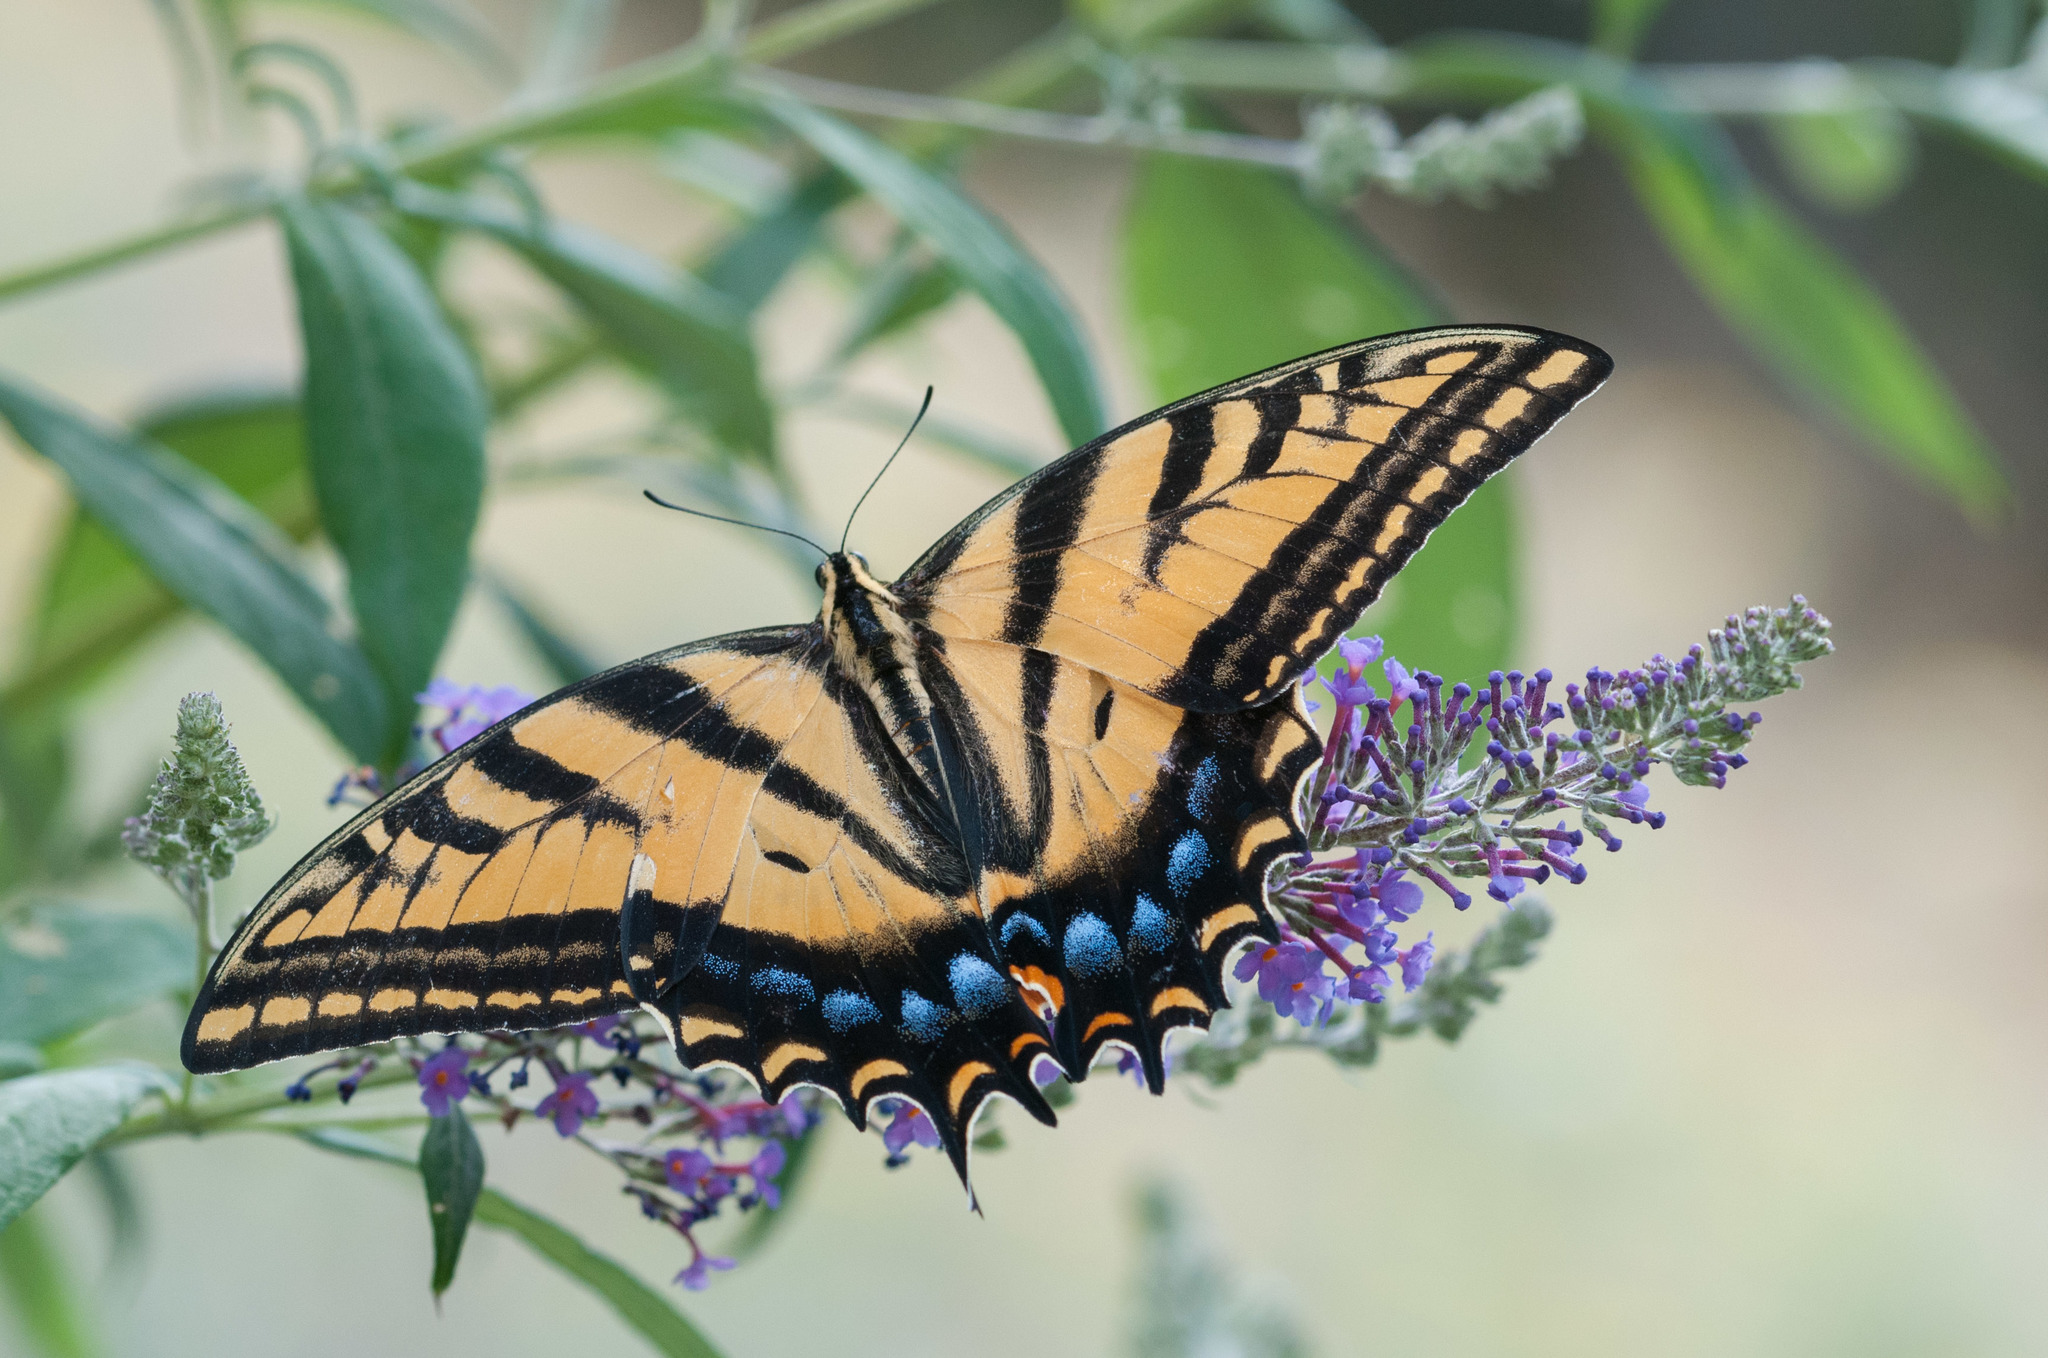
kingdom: Animalia
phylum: Arthropoda
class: Insecta
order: Lepidoptera
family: Papilionidae
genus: Papilio
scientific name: Papilio multicaudata
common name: Two-tailed tiger swallowtail
